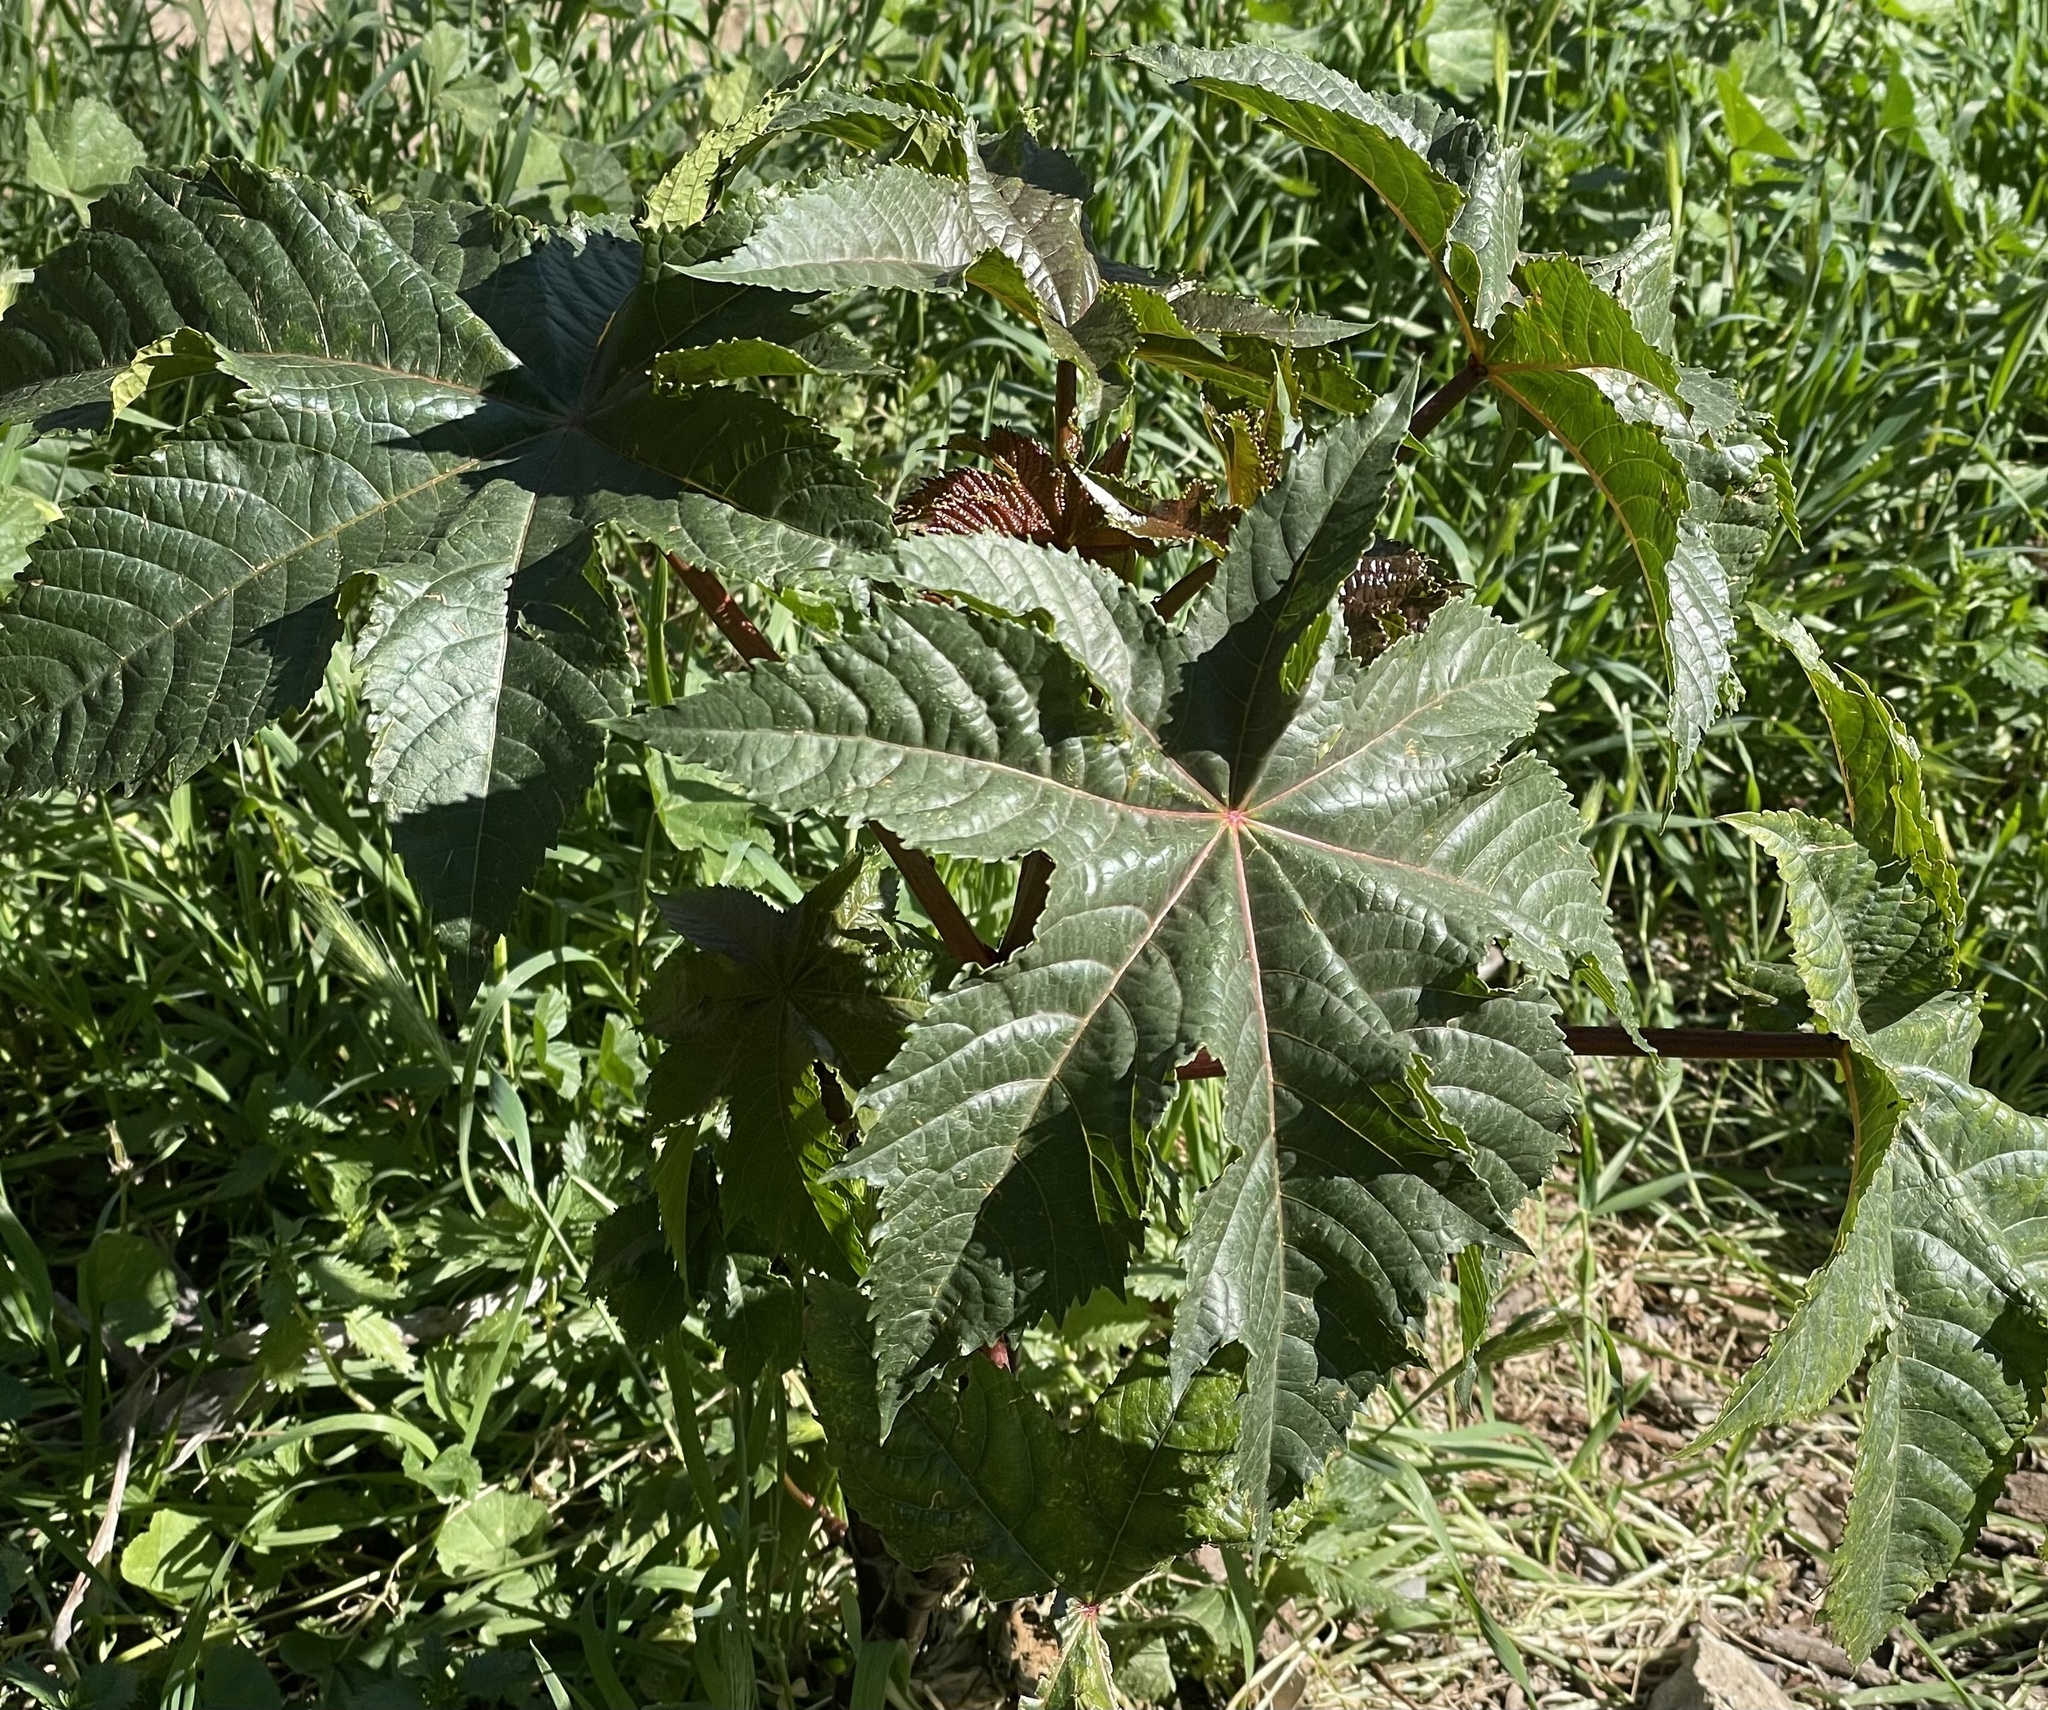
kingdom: Plantae
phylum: Tracheophyta
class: Magnoliopsida
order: Malpighiales
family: Euphorbiaceae
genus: Ricinus
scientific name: Ricinus communis
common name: Castor-oil-plant
